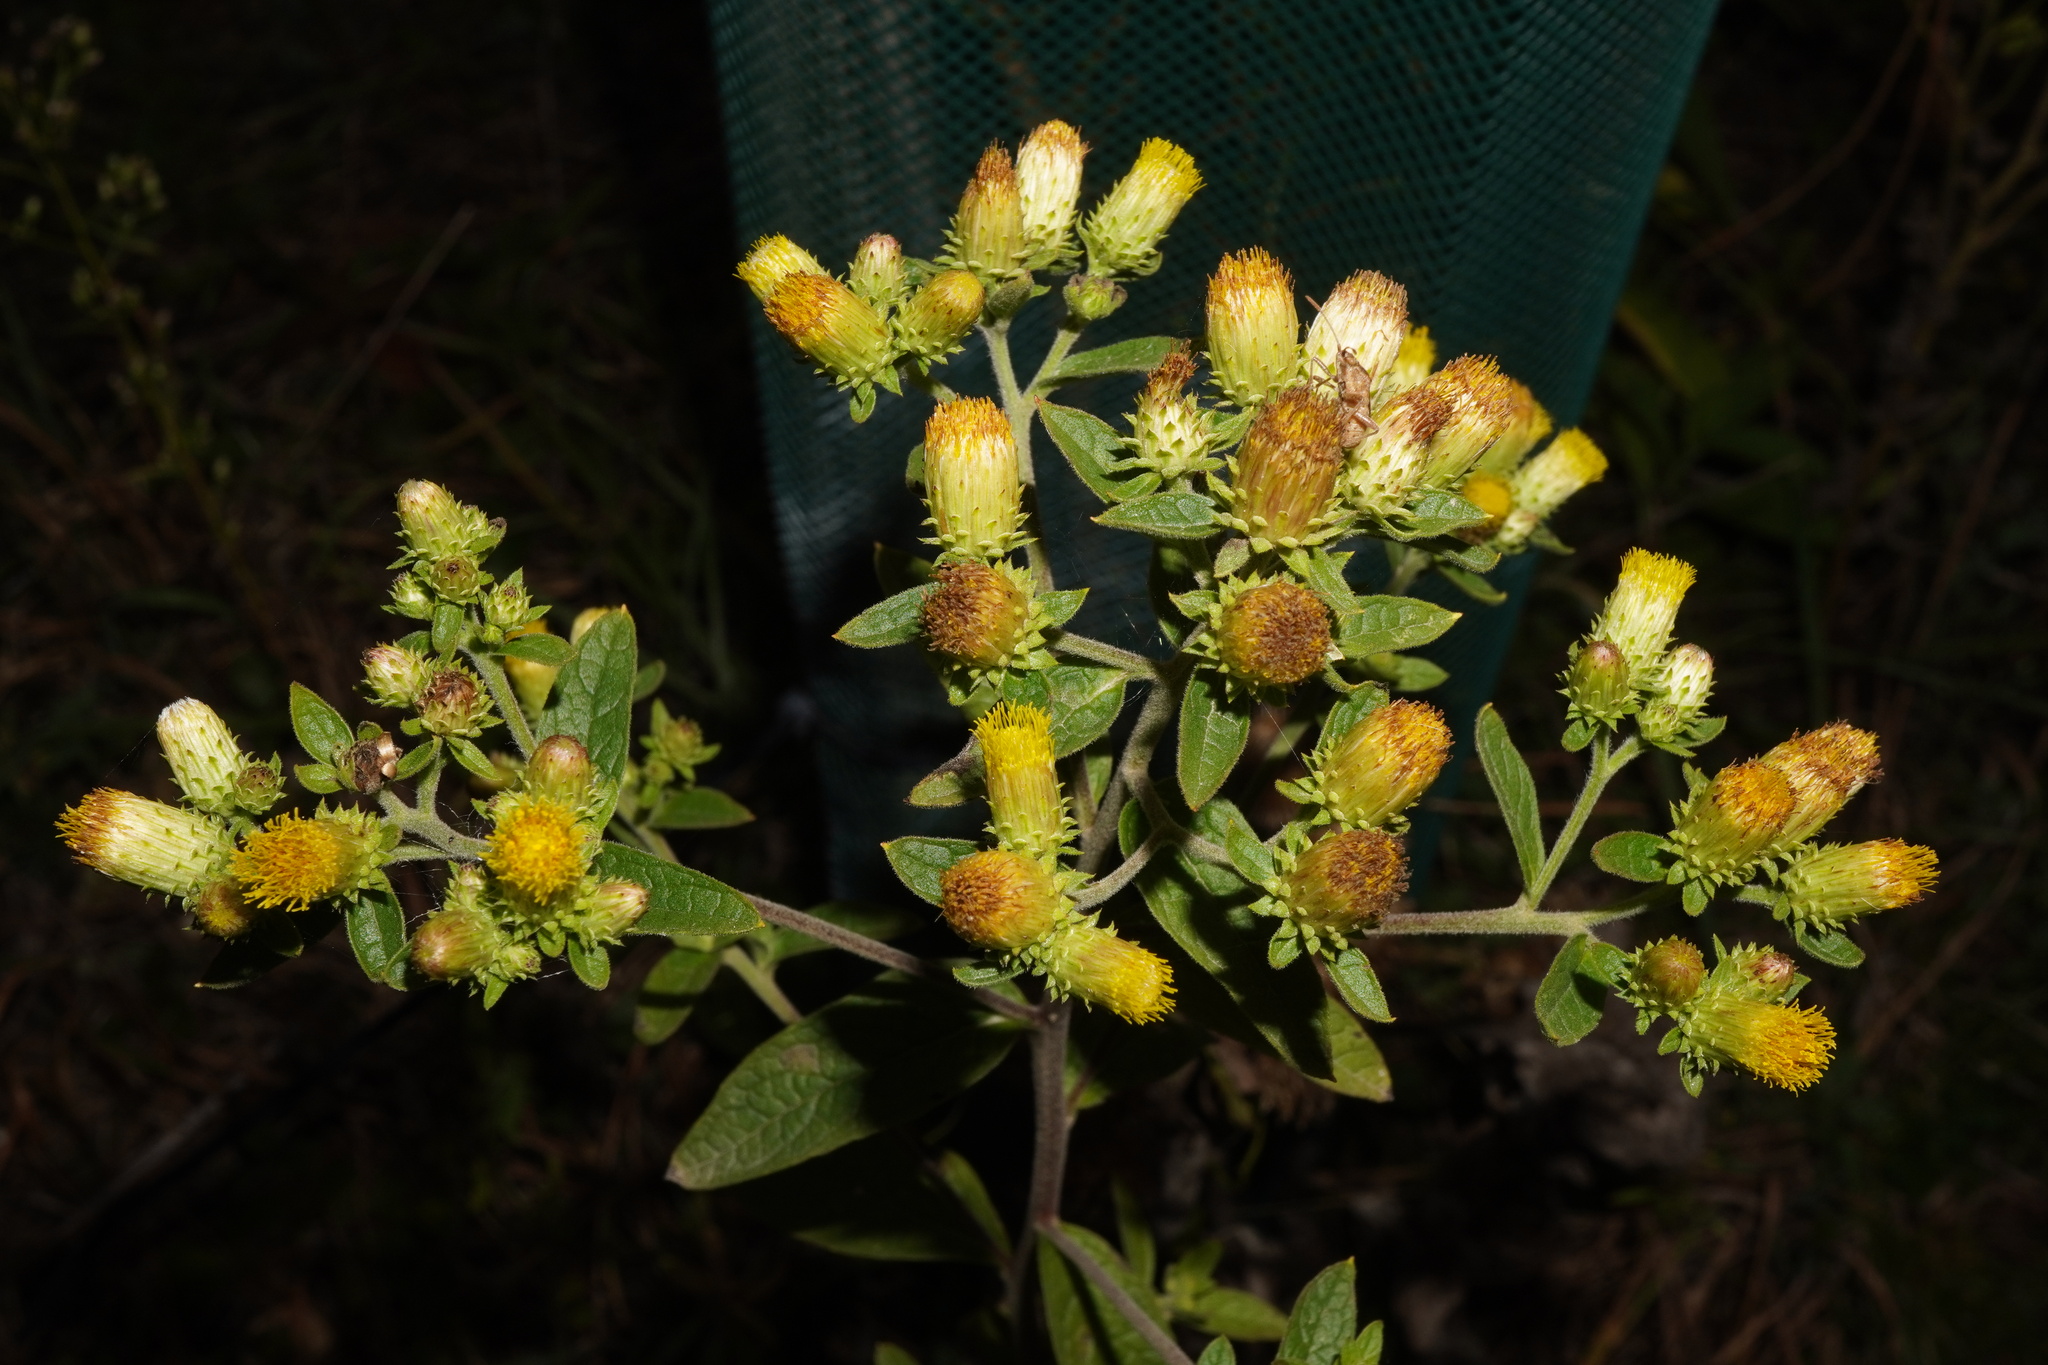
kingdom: Plantae
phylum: Tracheophyta
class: Magnoliopsida
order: Asterales
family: Asteraceae
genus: Pentanema
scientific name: Pentanema squarrosum
